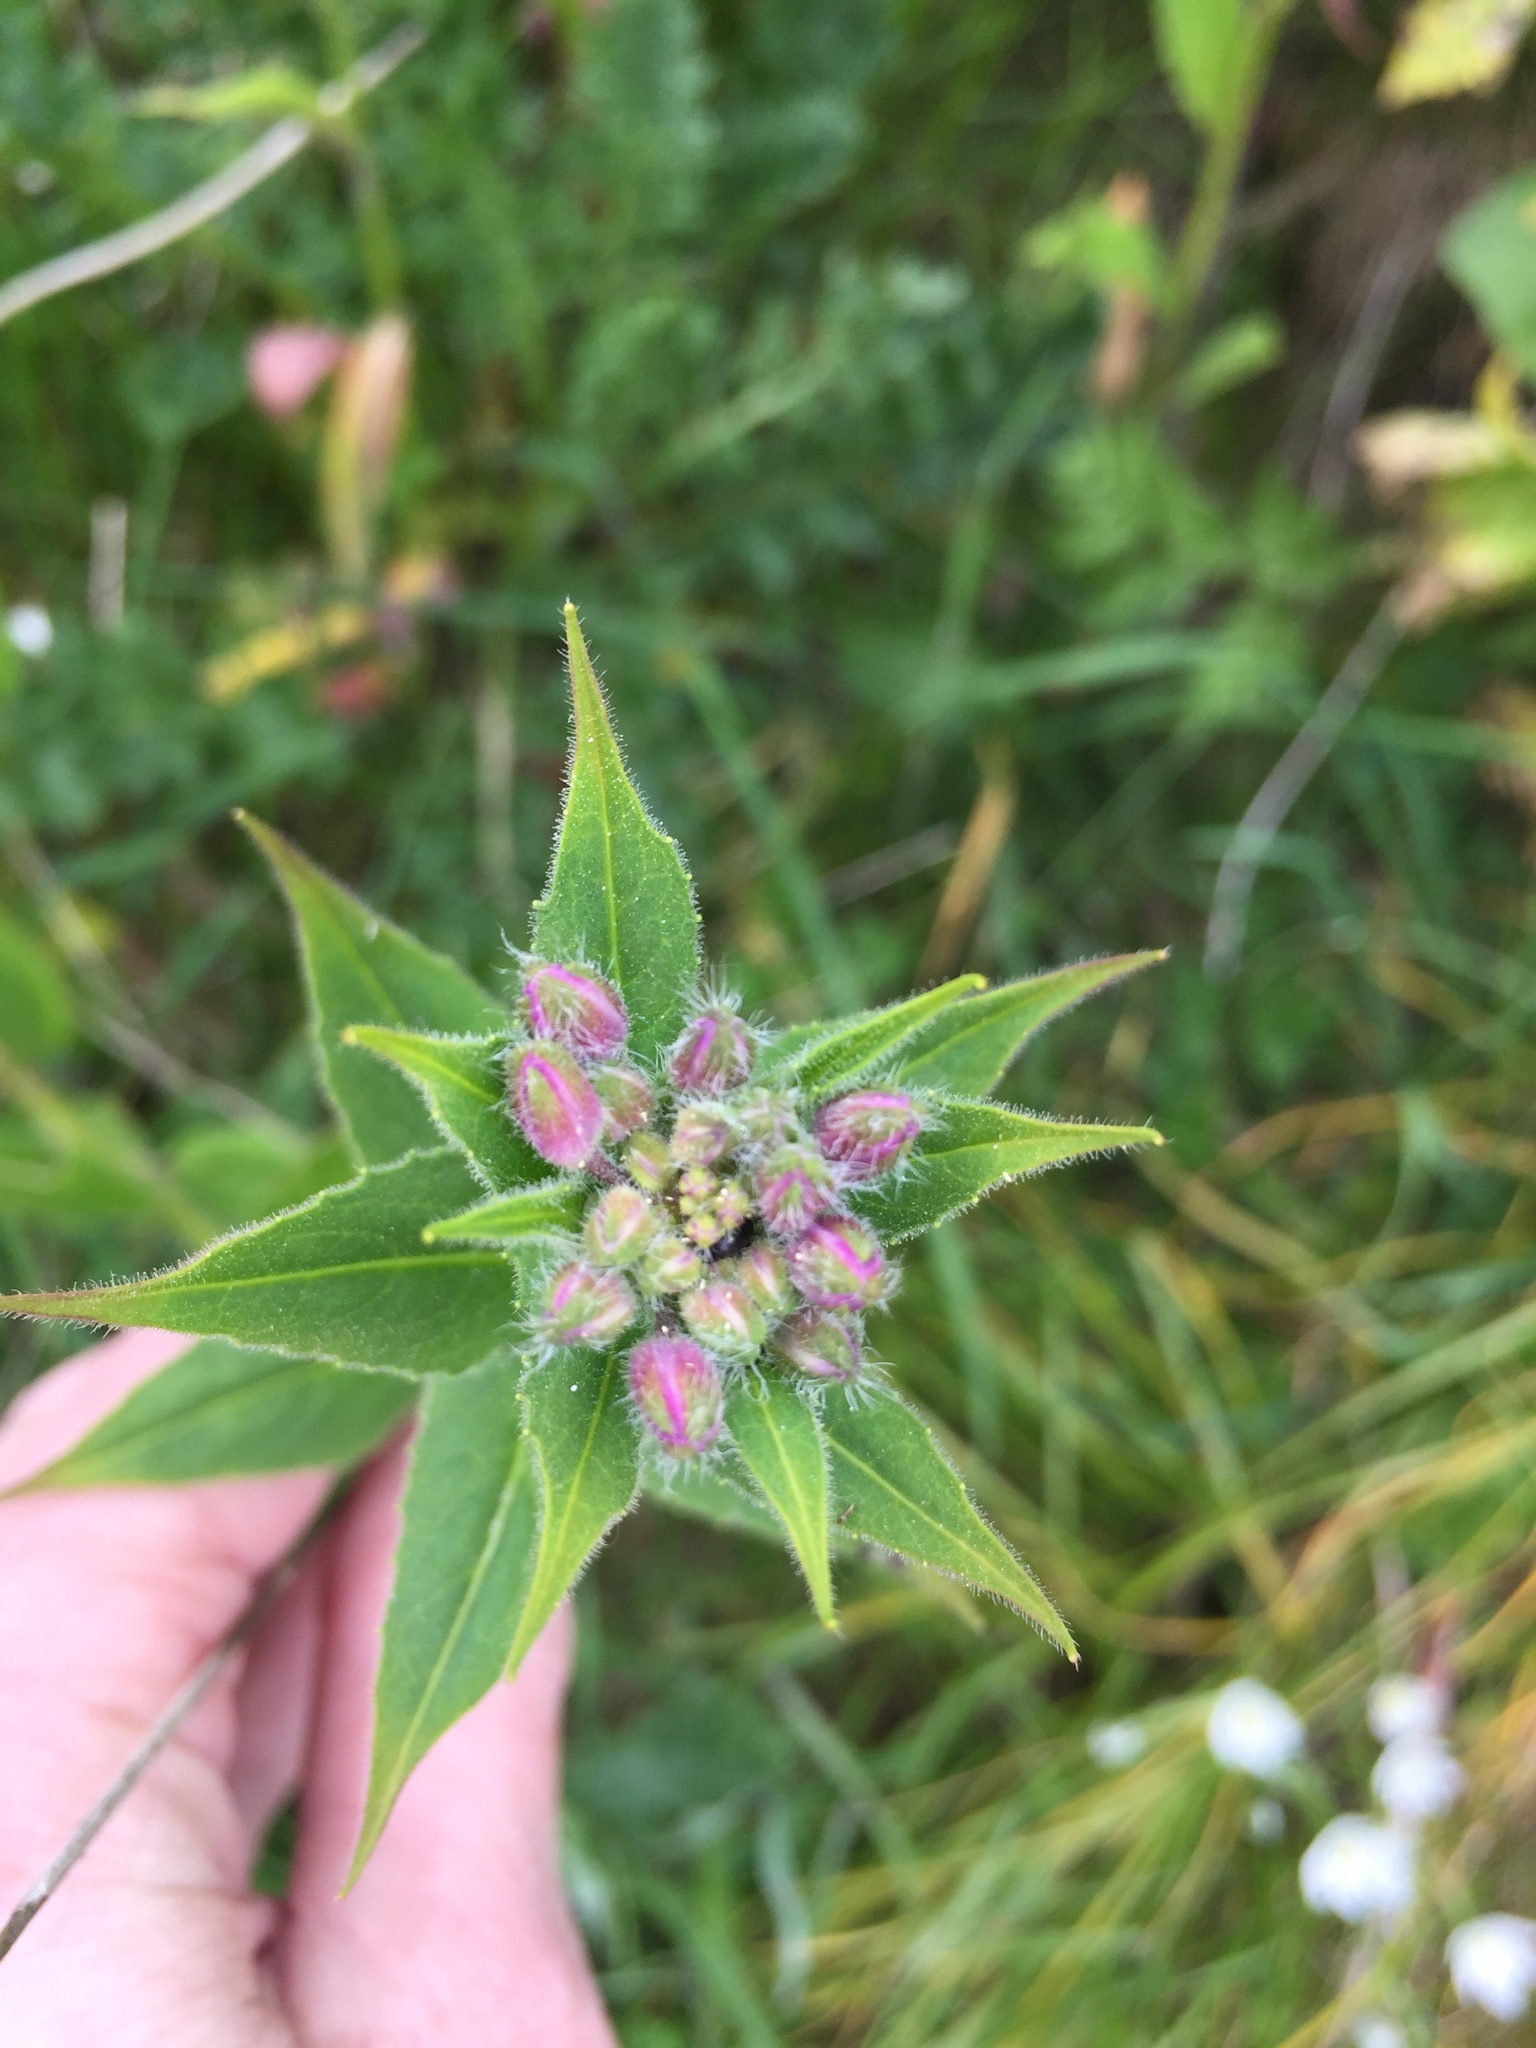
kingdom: Plantae
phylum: Tracheophyta
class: Magnoliopsida
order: Brassicales
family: Brassicaceae
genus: Hesperis
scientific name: Hesperis matronalis
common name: Dame's-violet
